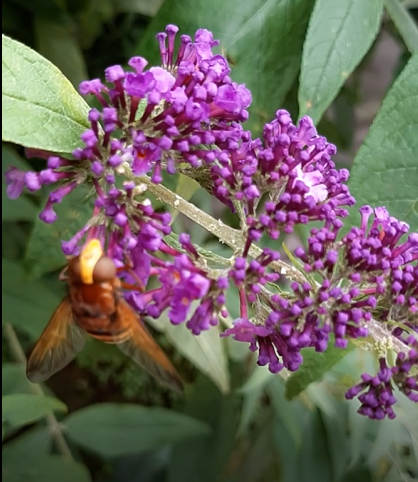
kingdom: Animalia
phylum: Arthropoda
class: Insecta
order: Diptera
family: Syrphidae
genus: Volucella
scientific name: Volucella zonaria
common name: Hornet hoverfly
